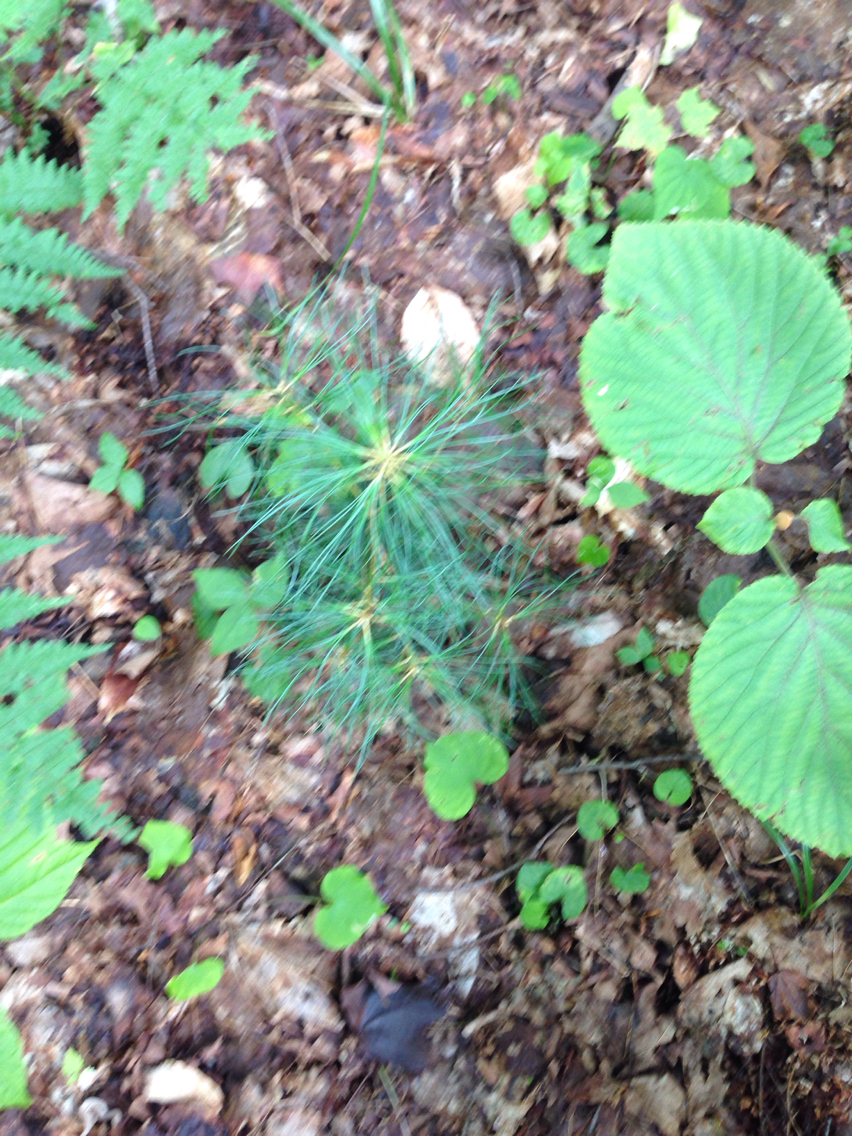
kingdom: Plantae
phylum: Tracheophyta
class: Pinopsida
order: Pinales
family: Pinaceae
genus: Pinus
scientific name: Pinus strobus
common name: Weymouth pine
